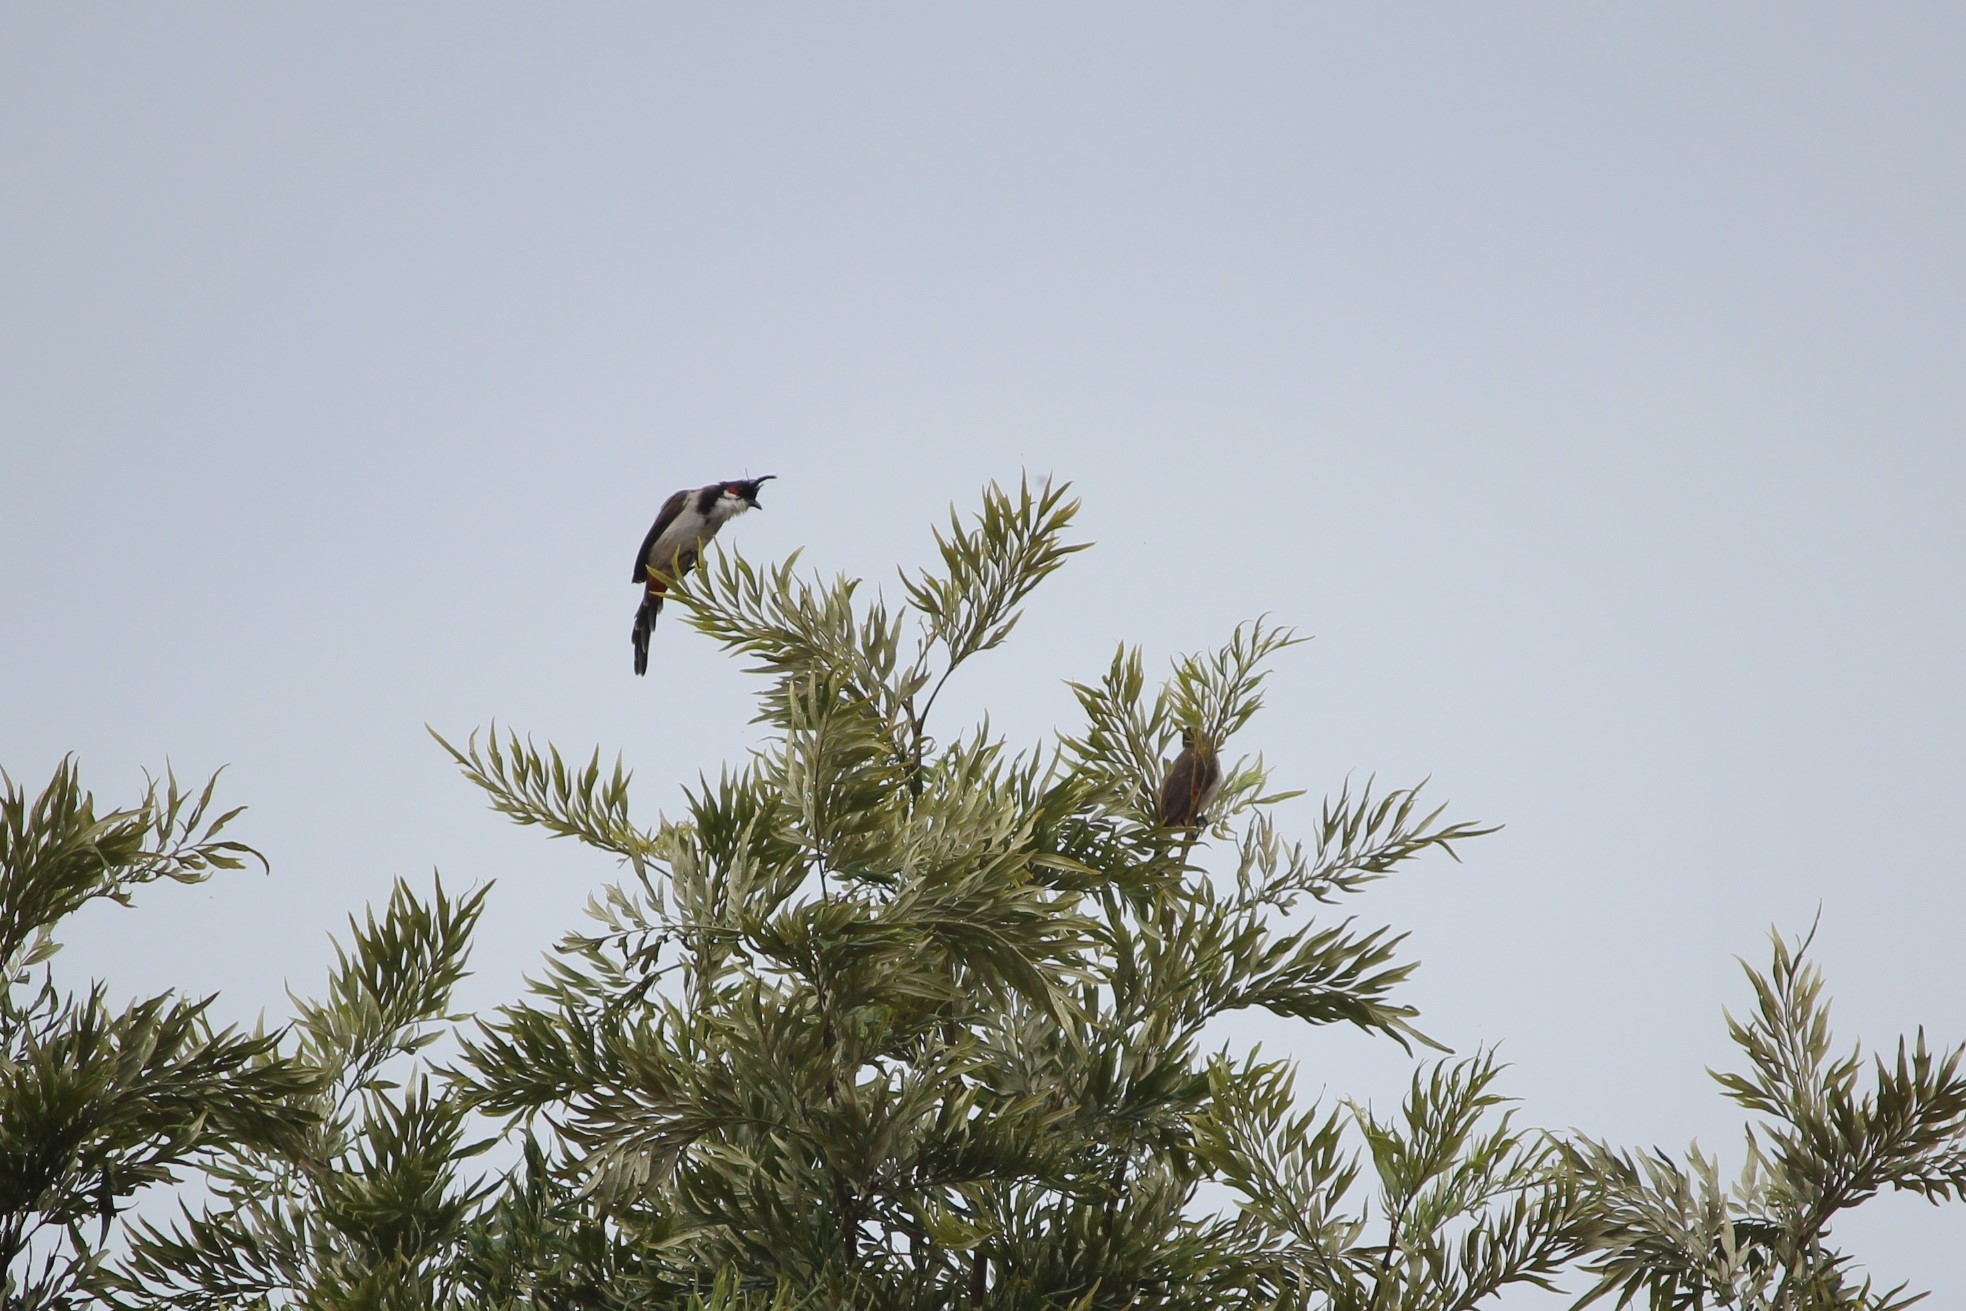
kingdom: Animalia
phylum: Chordata
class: Aves
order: Passeriformes
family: Pycnonotidae
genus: Pycnonotus
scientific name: Pycnonotus jocosus
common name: Red-whiskered bulbul
